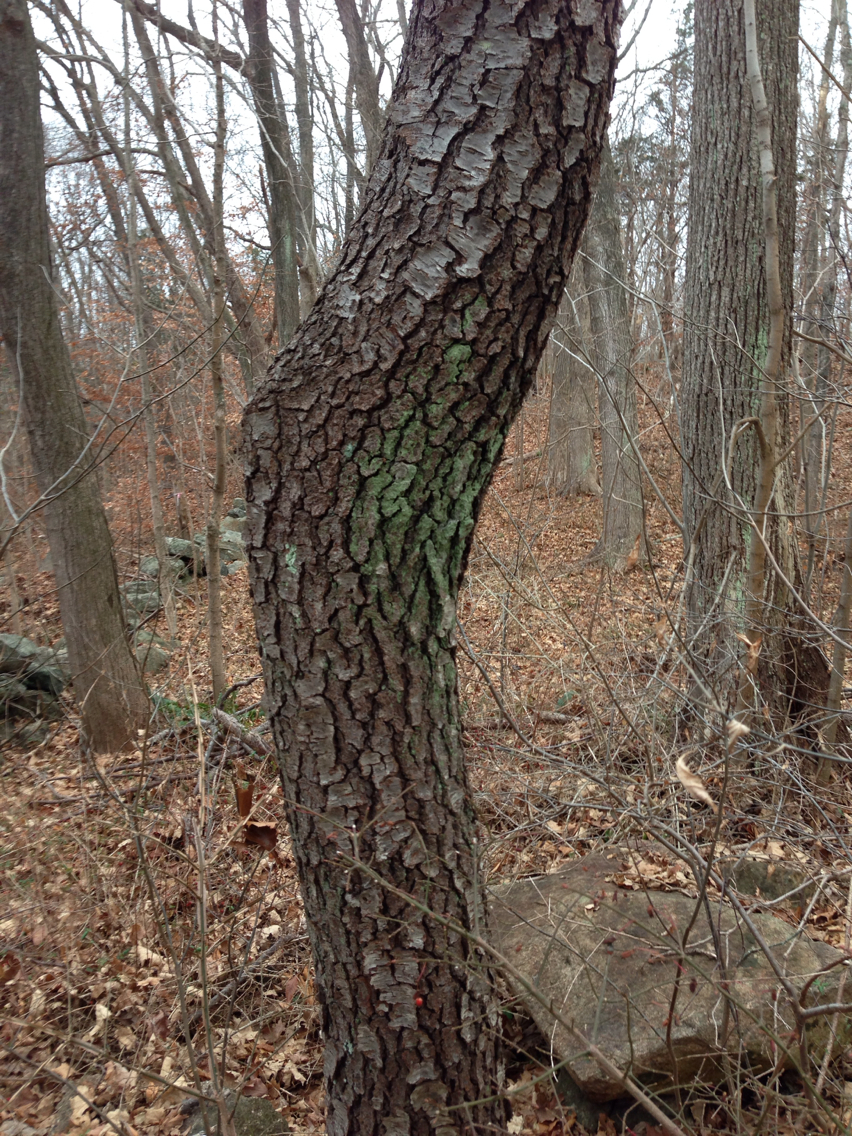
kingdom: Plantae
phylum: Tracheophyta
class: Magnoliopsida
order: Rosales
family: Rosaceae
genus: Prunus
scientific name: Prunus serotina
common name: Black cherry
